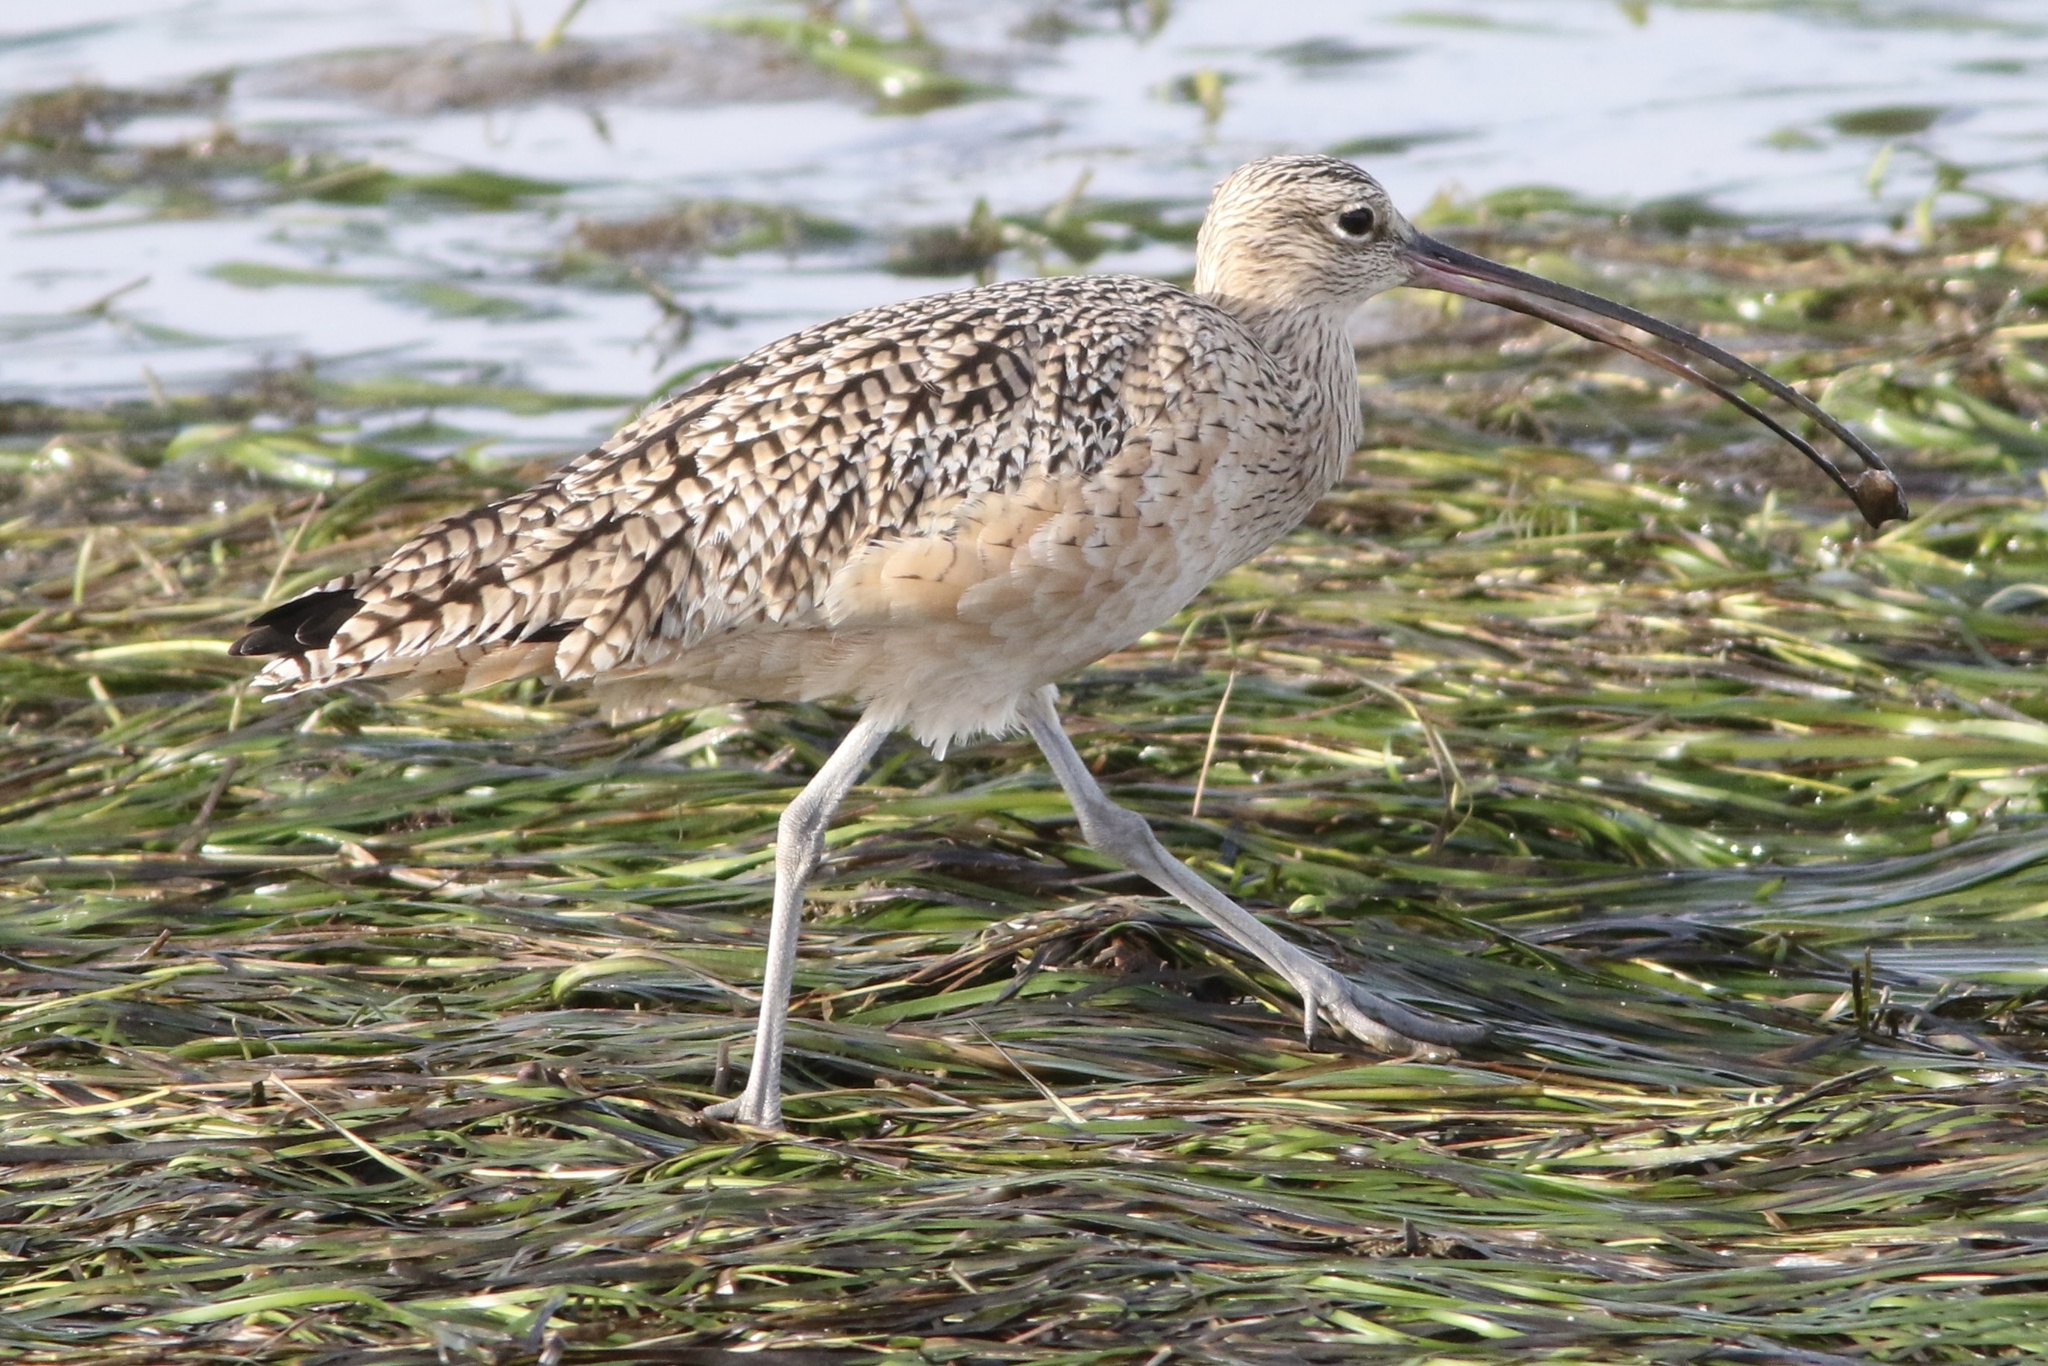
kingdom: Animalia
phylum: Chordata
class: Aves
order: Charadriiformes
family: Scolopacidae
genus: Numenius
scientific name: Numenius americanus
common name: Long-billed curlew
